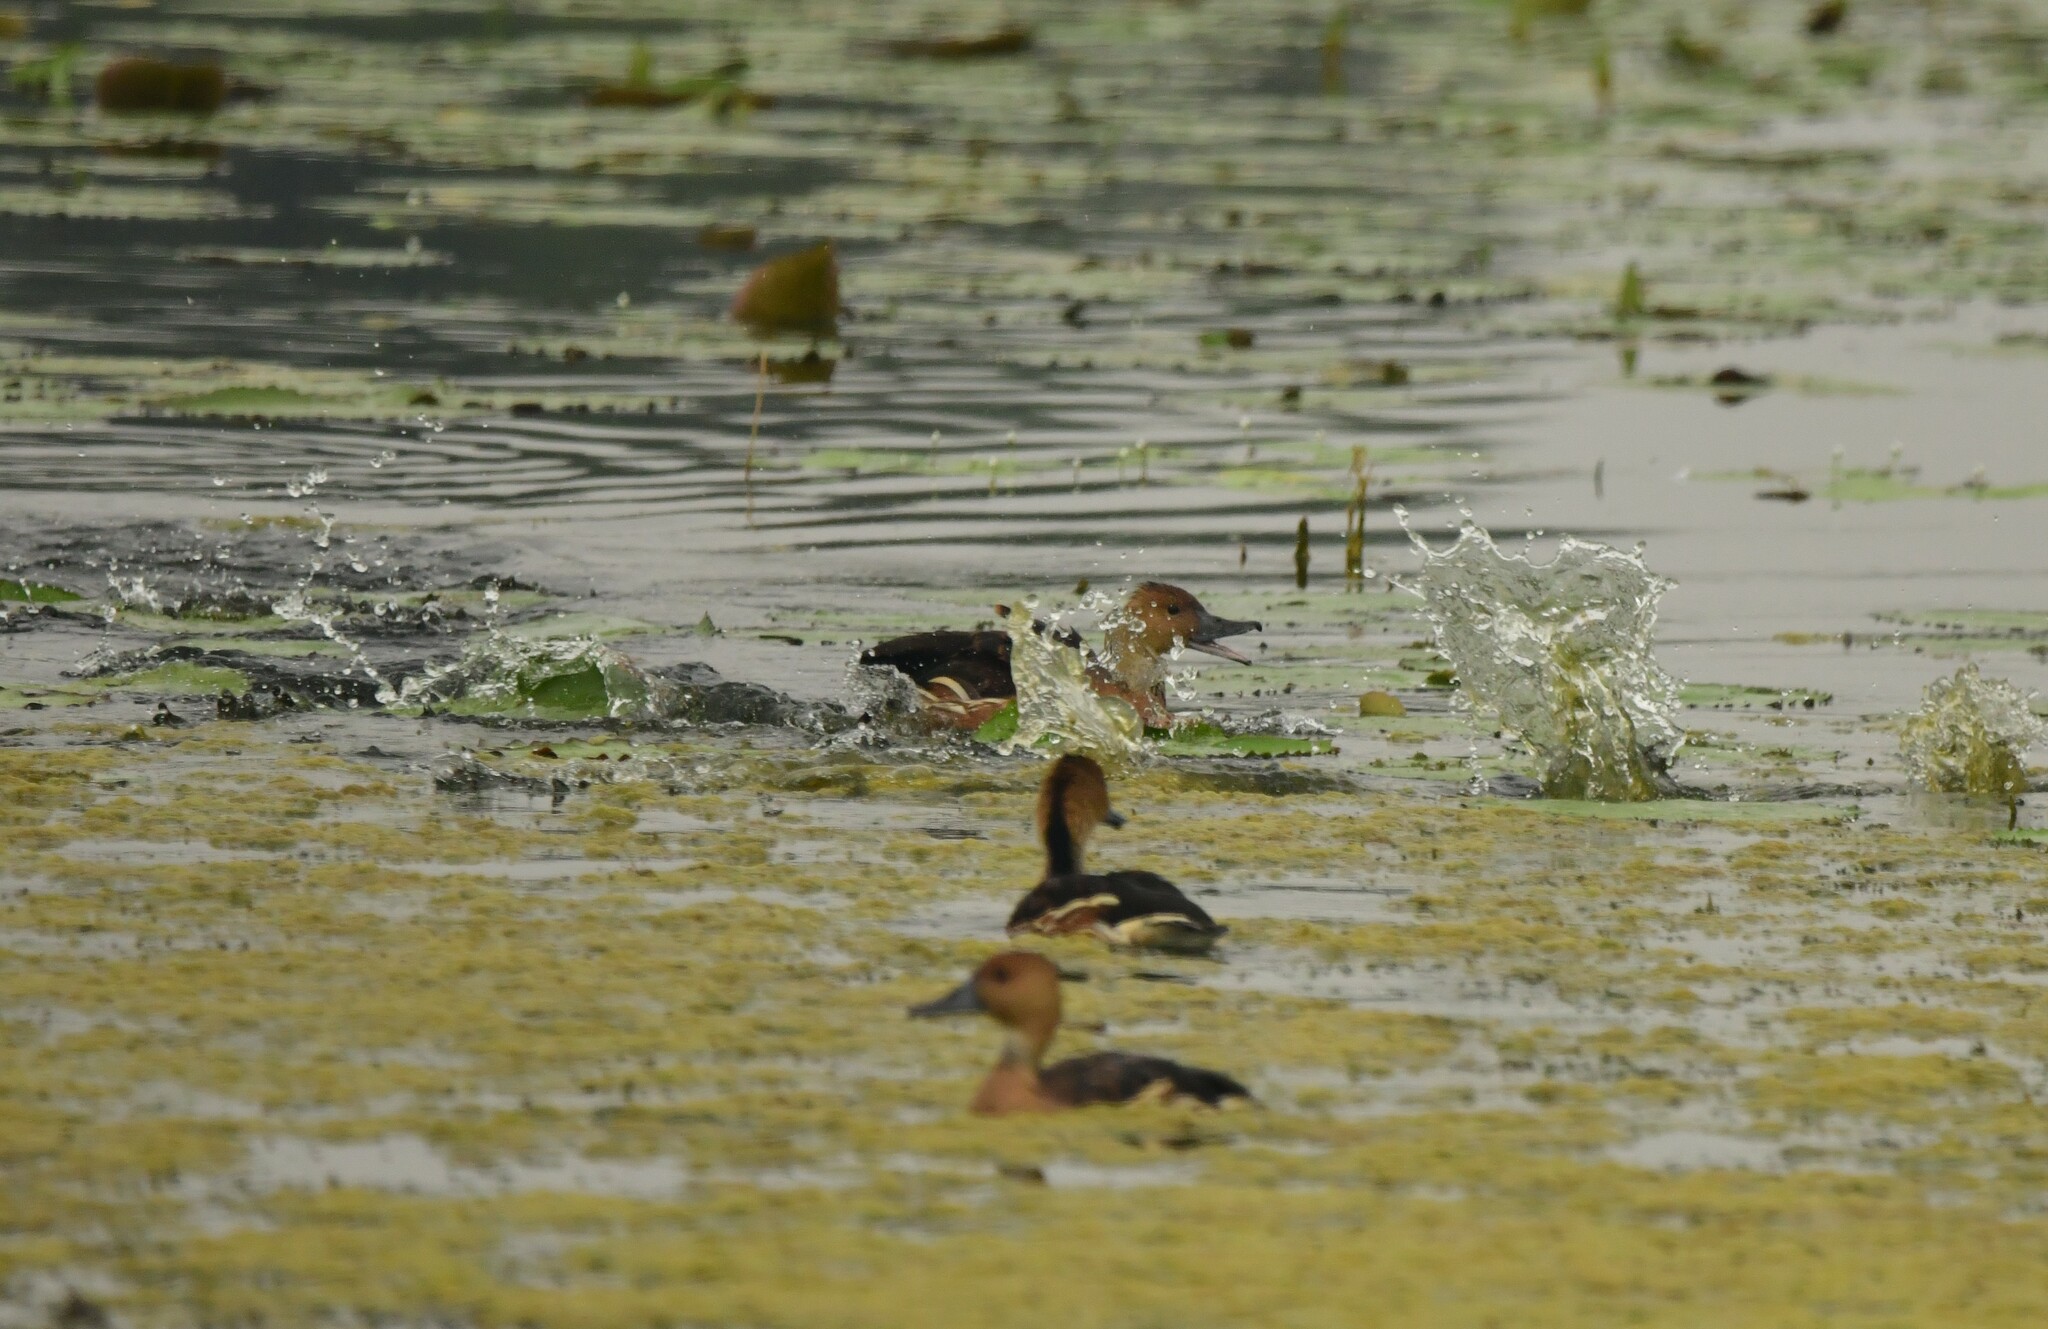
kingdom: Animalia
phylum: Chordata
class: Aves
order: Anseriformes
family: Anatidae
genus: Dendrocygna
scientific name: Dendrocygna bicolor
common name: Fulvous whistling duck
